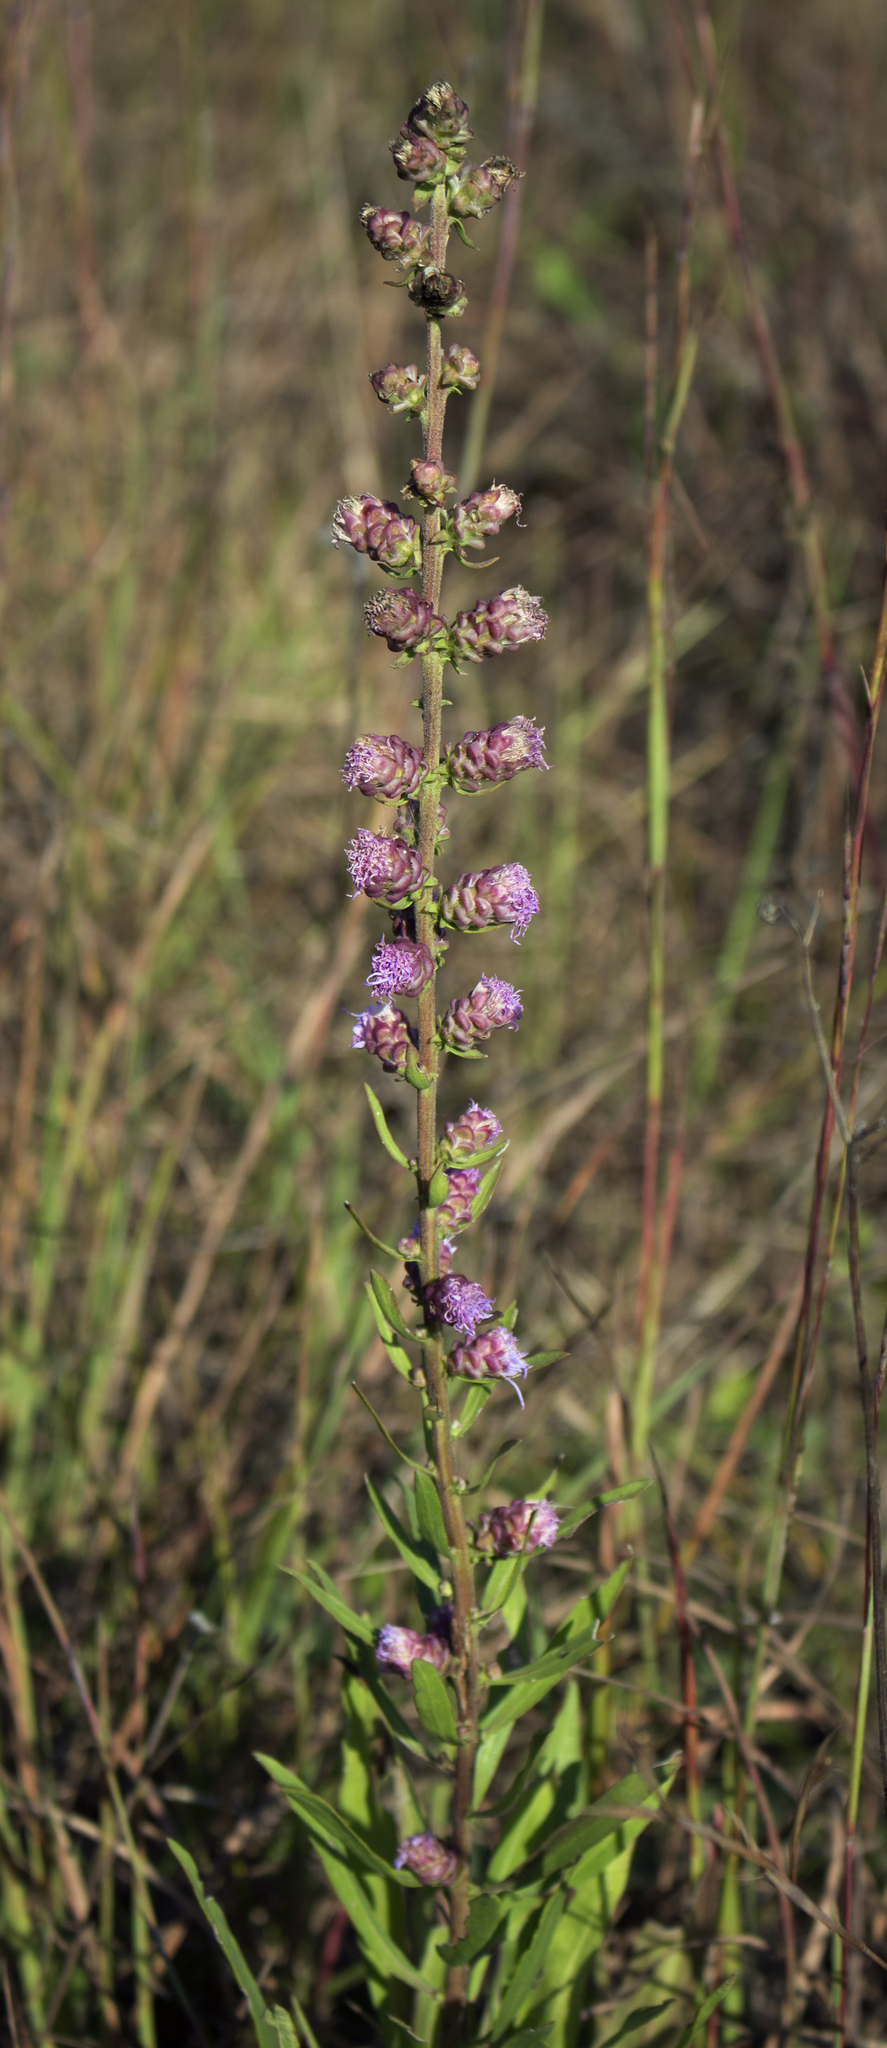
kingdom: Plantae
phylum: Tracheophyta
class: Magnoliopsida
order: Asterales
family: Asteraceae
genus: Liatris
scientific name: Liatris aspera
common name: Lacerate blazing-star
